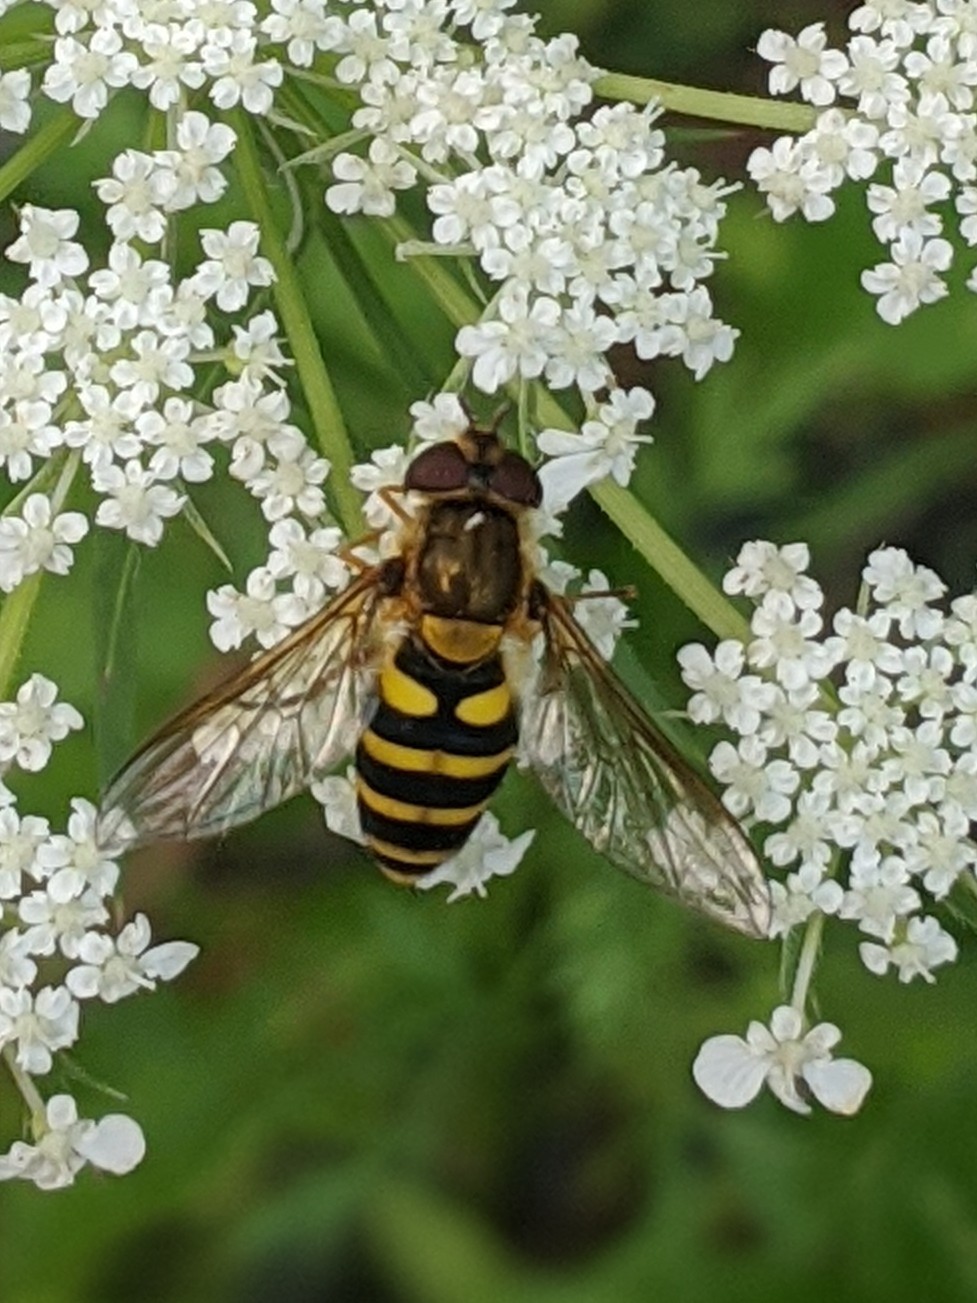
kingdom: Animalia
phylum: Arthropoda
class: Insecta
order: Diptera
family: Syrphidae
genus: Syrphus
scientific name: Syrphus
